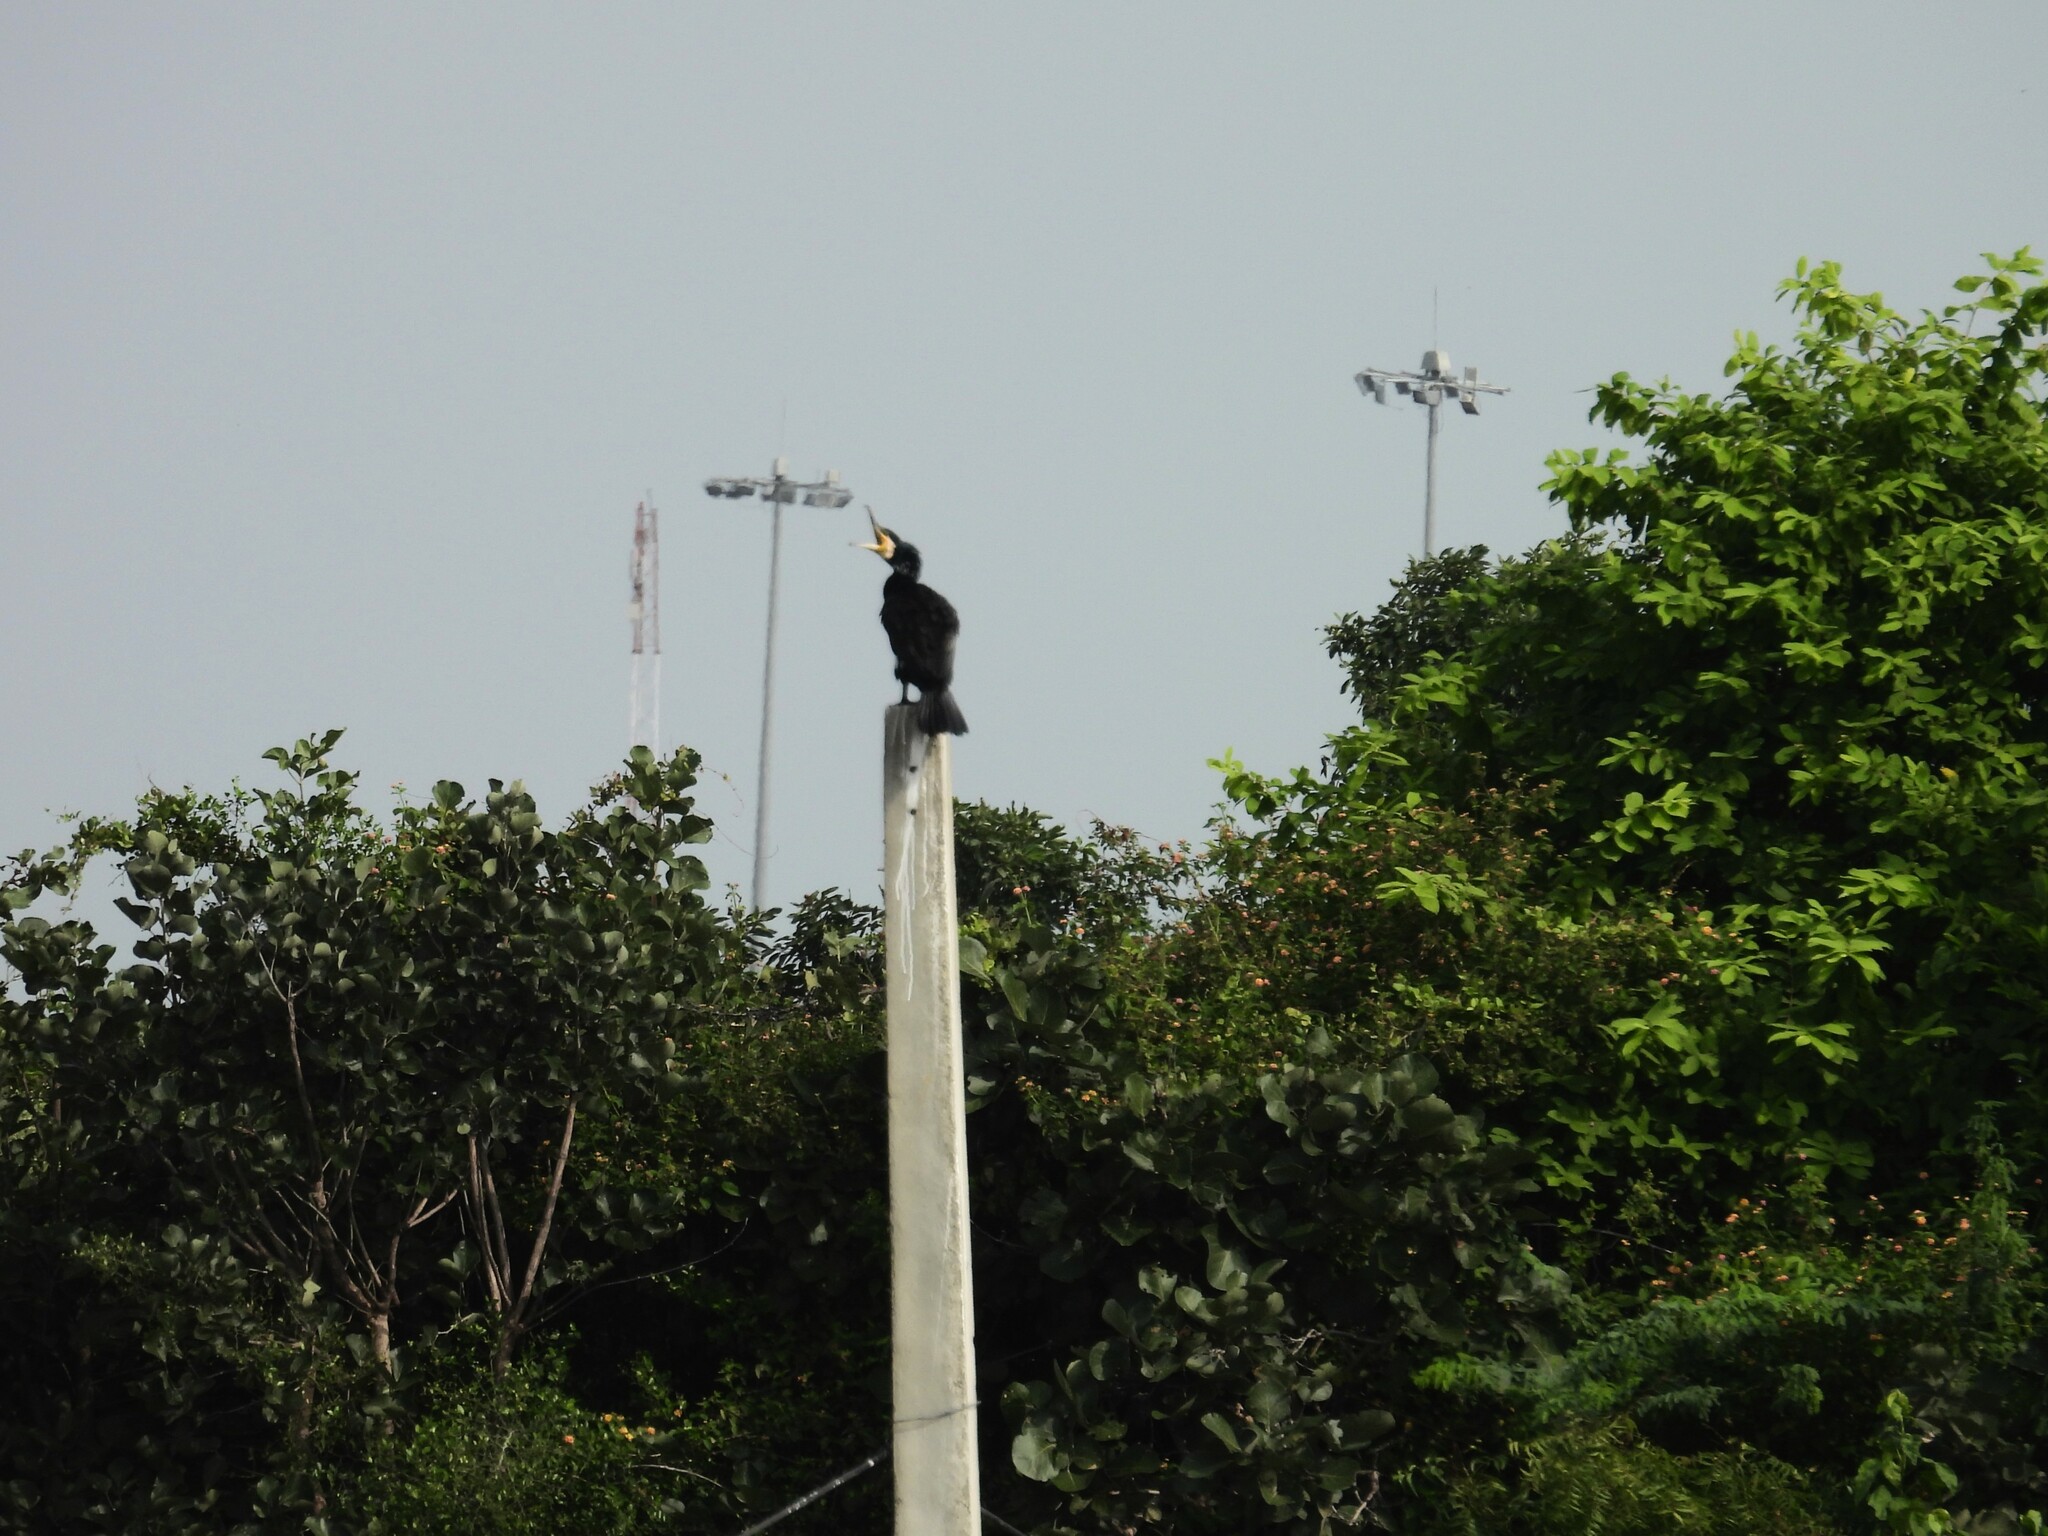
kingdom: Animalia
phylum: Chordata
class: Aves
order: Suliformes
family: Phalacrocoracidae
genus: Phalacrocorax
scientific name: Phalacrocorax carbo
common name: Great cormorant
